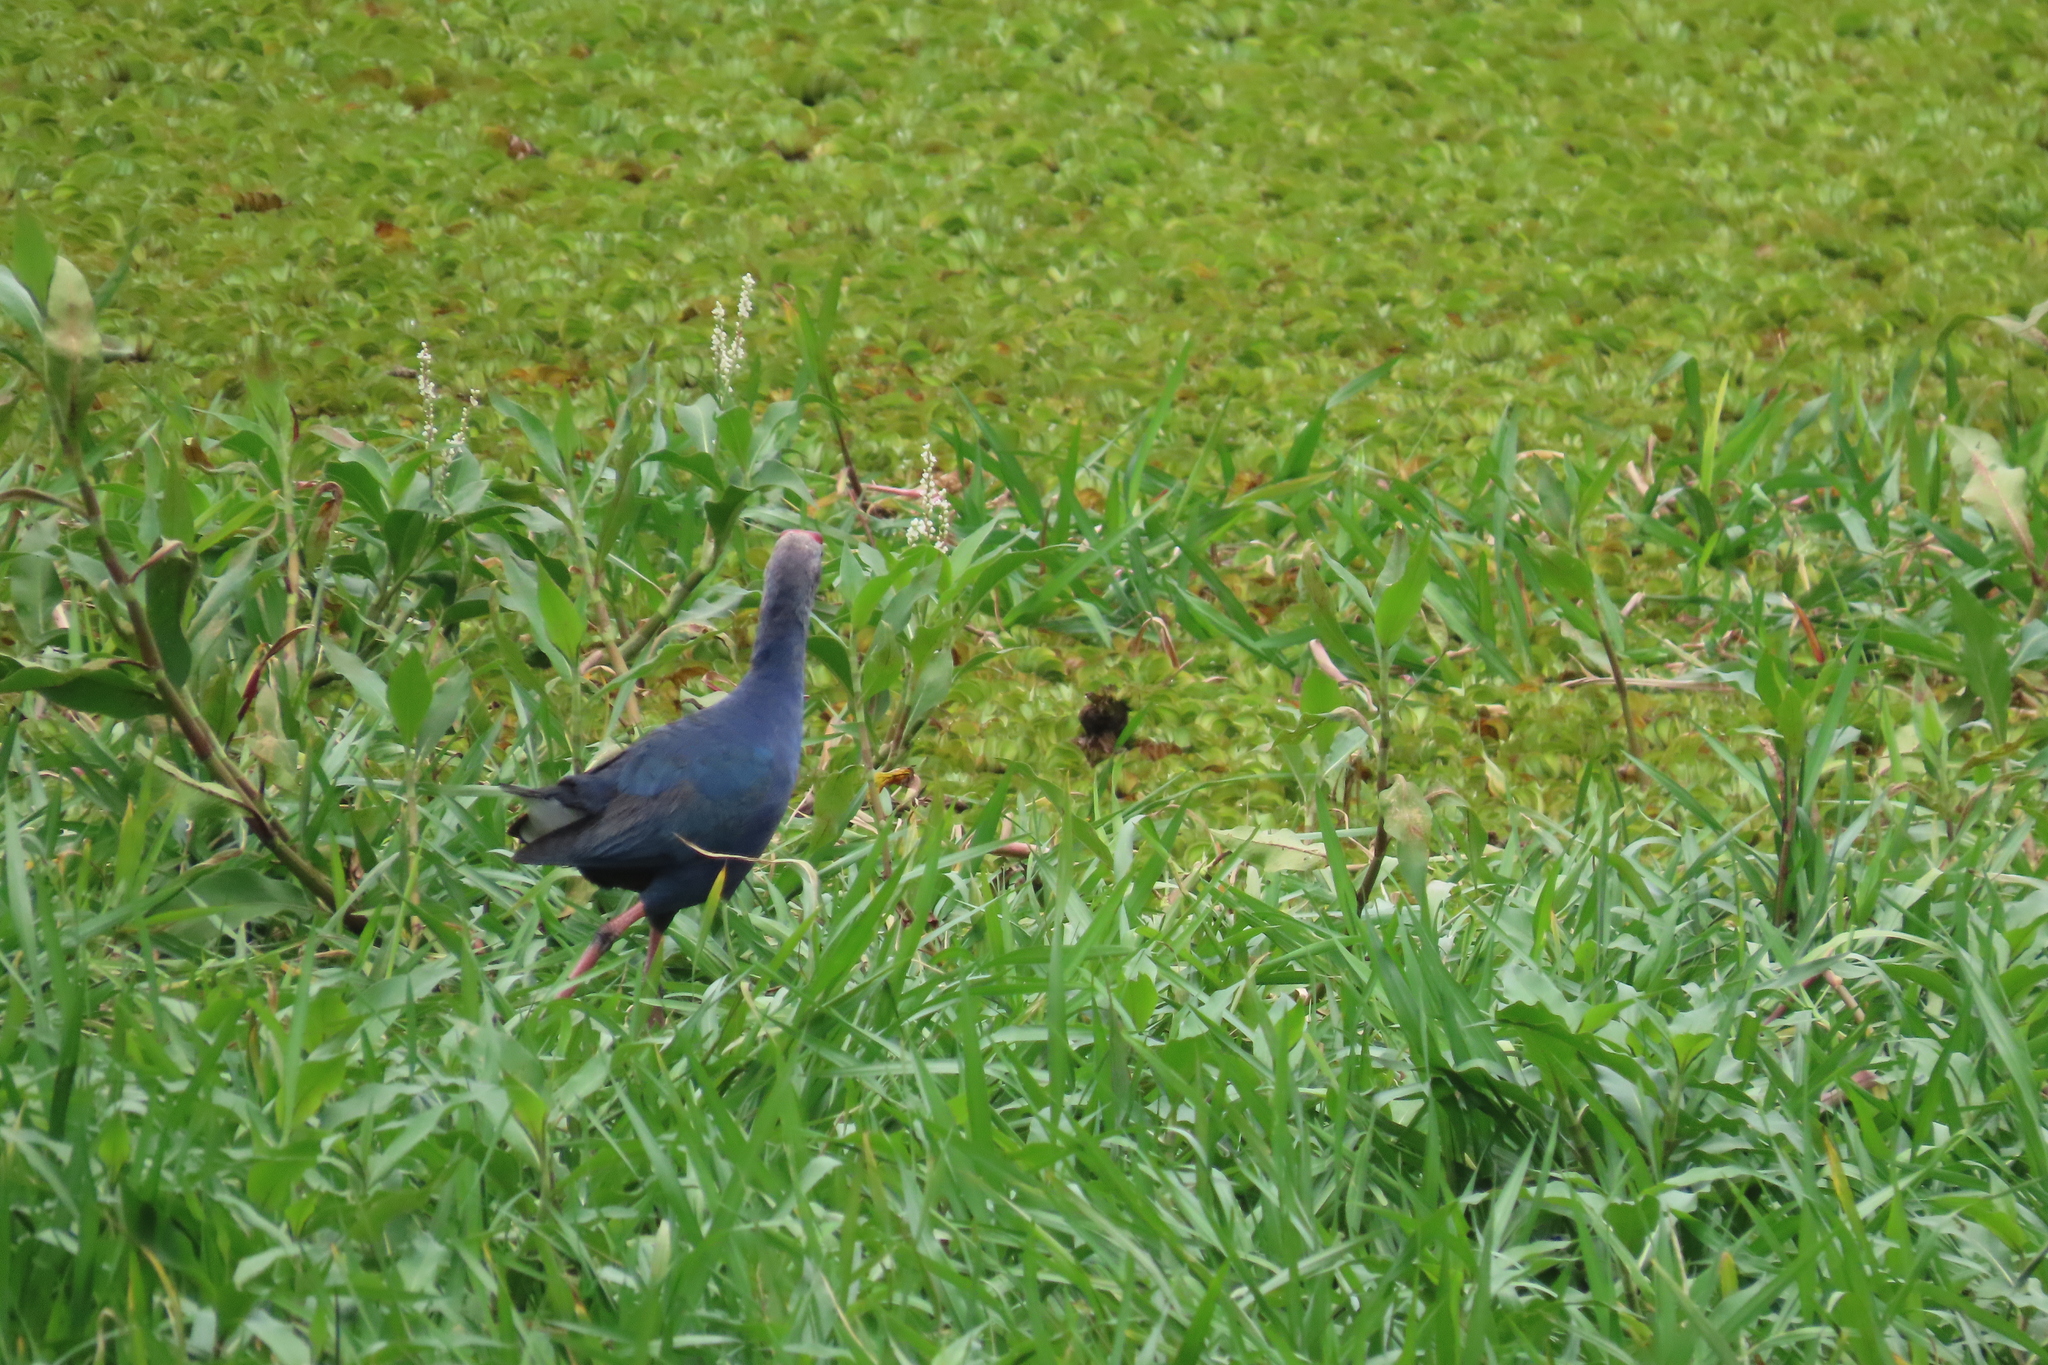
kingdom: Animalia
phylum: Chordata
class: Aves
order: Gruiformes
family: Rallidae
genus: Porphyrio
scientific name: Porphyrio porphyrio
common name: Purple swamphen
